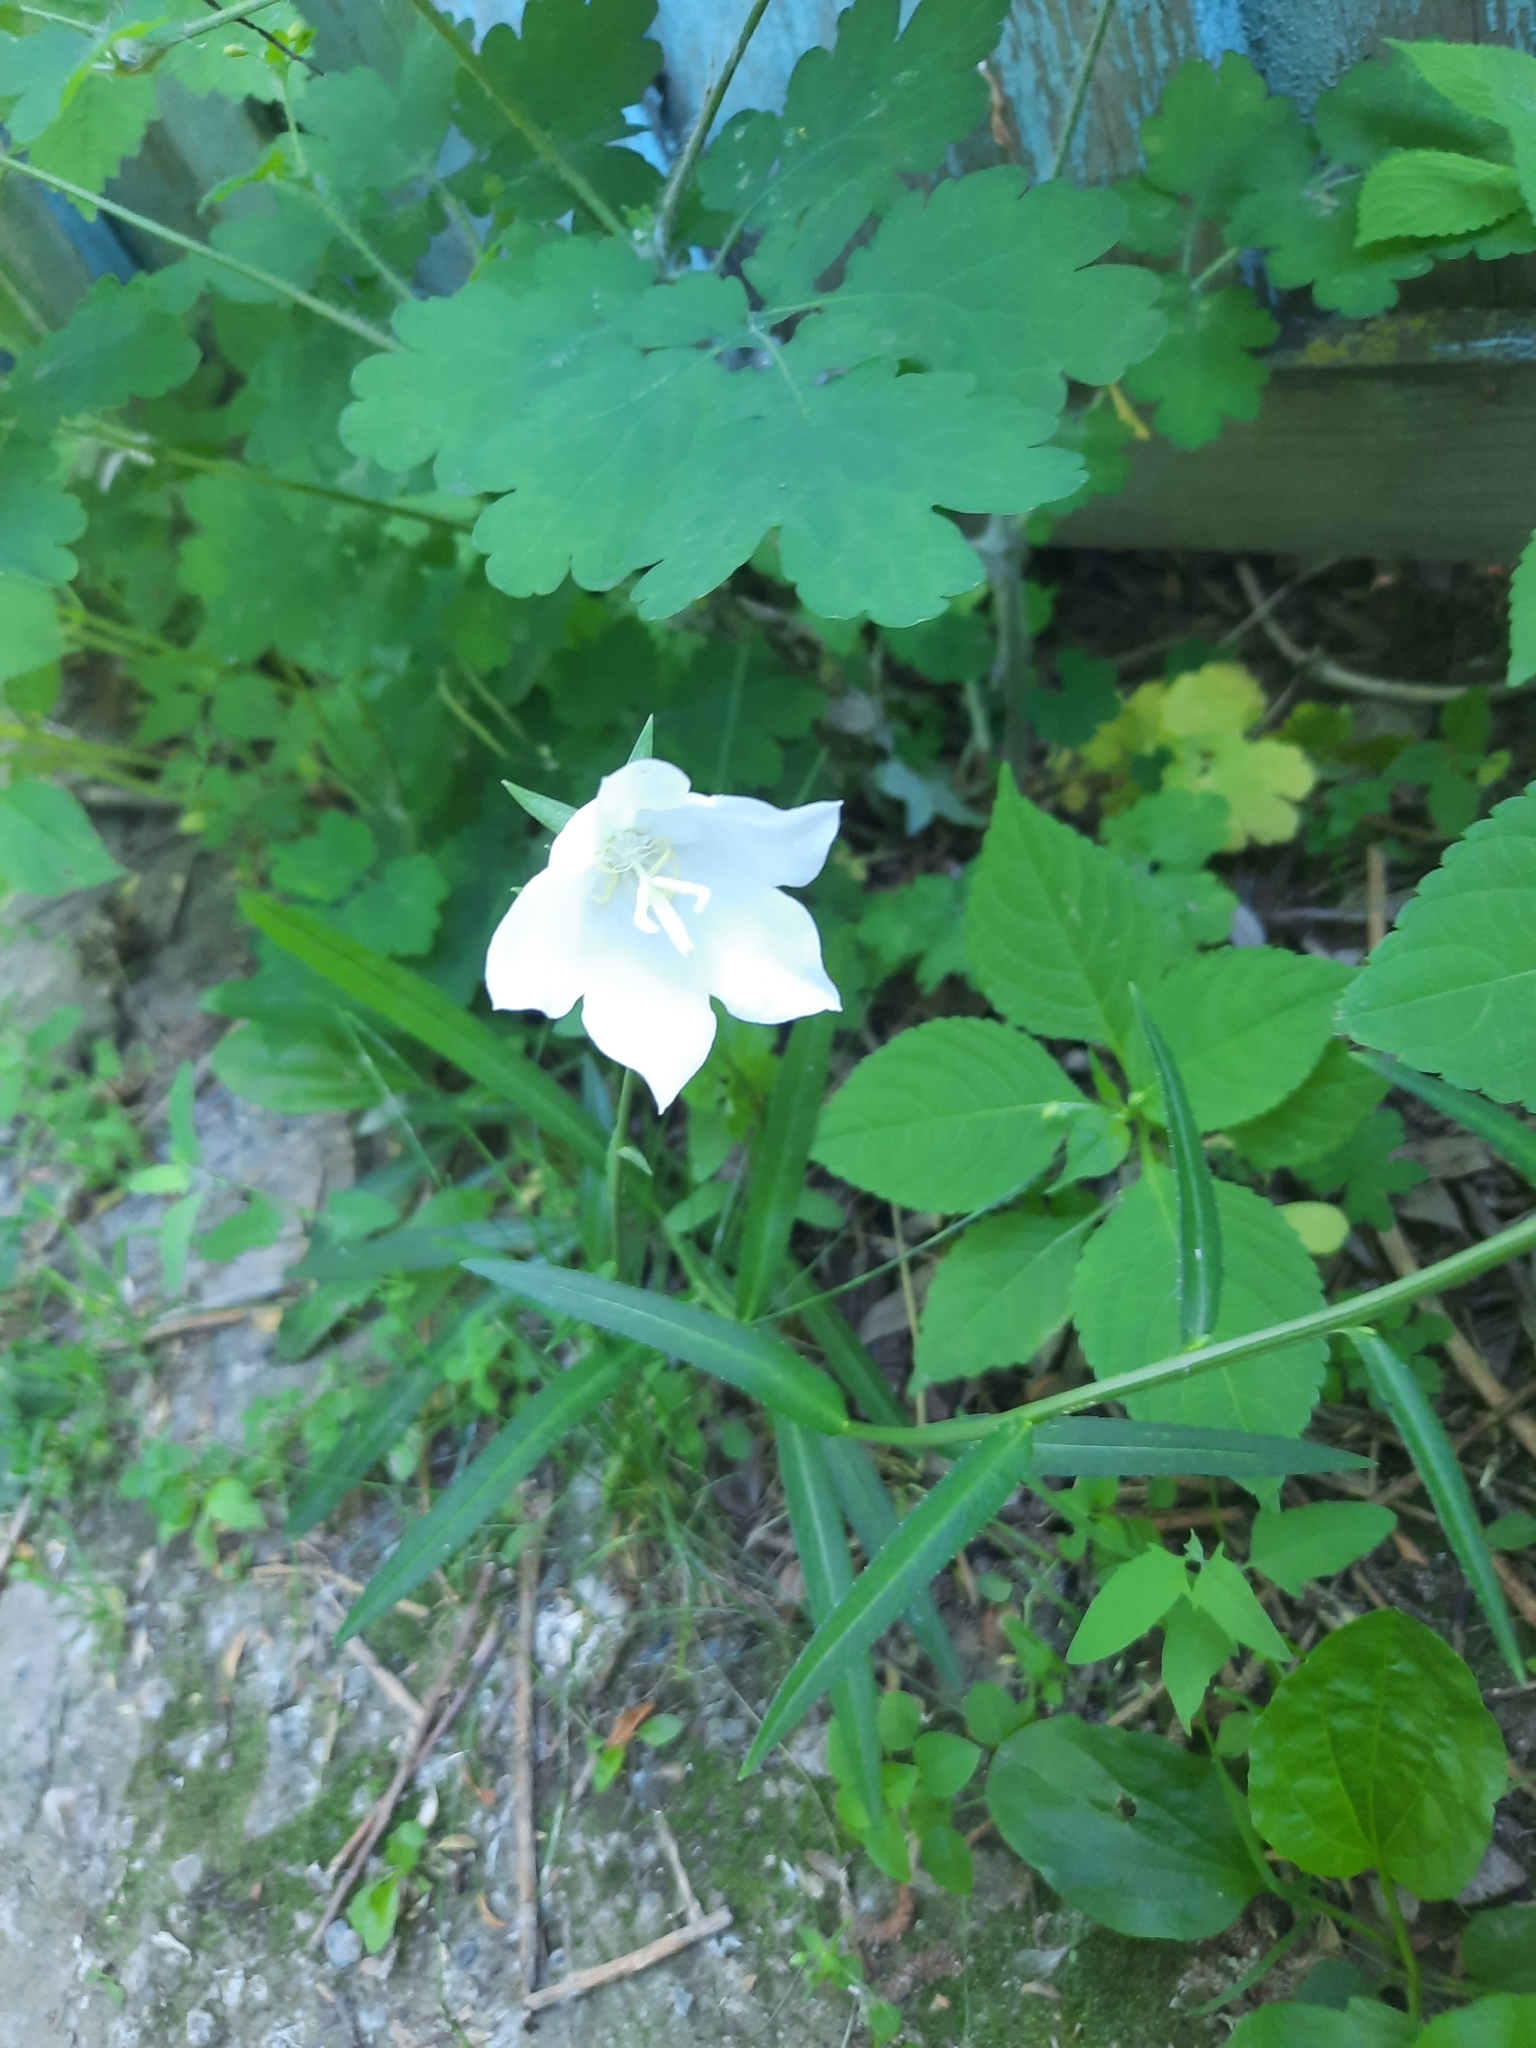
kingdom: Plantae
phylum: Tracheophyta
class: Magnoliopsida
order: Asterales
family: Campanulaceae
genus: Campanula
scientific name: Campanula persicifolia
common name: Peach-leaved bellflower
